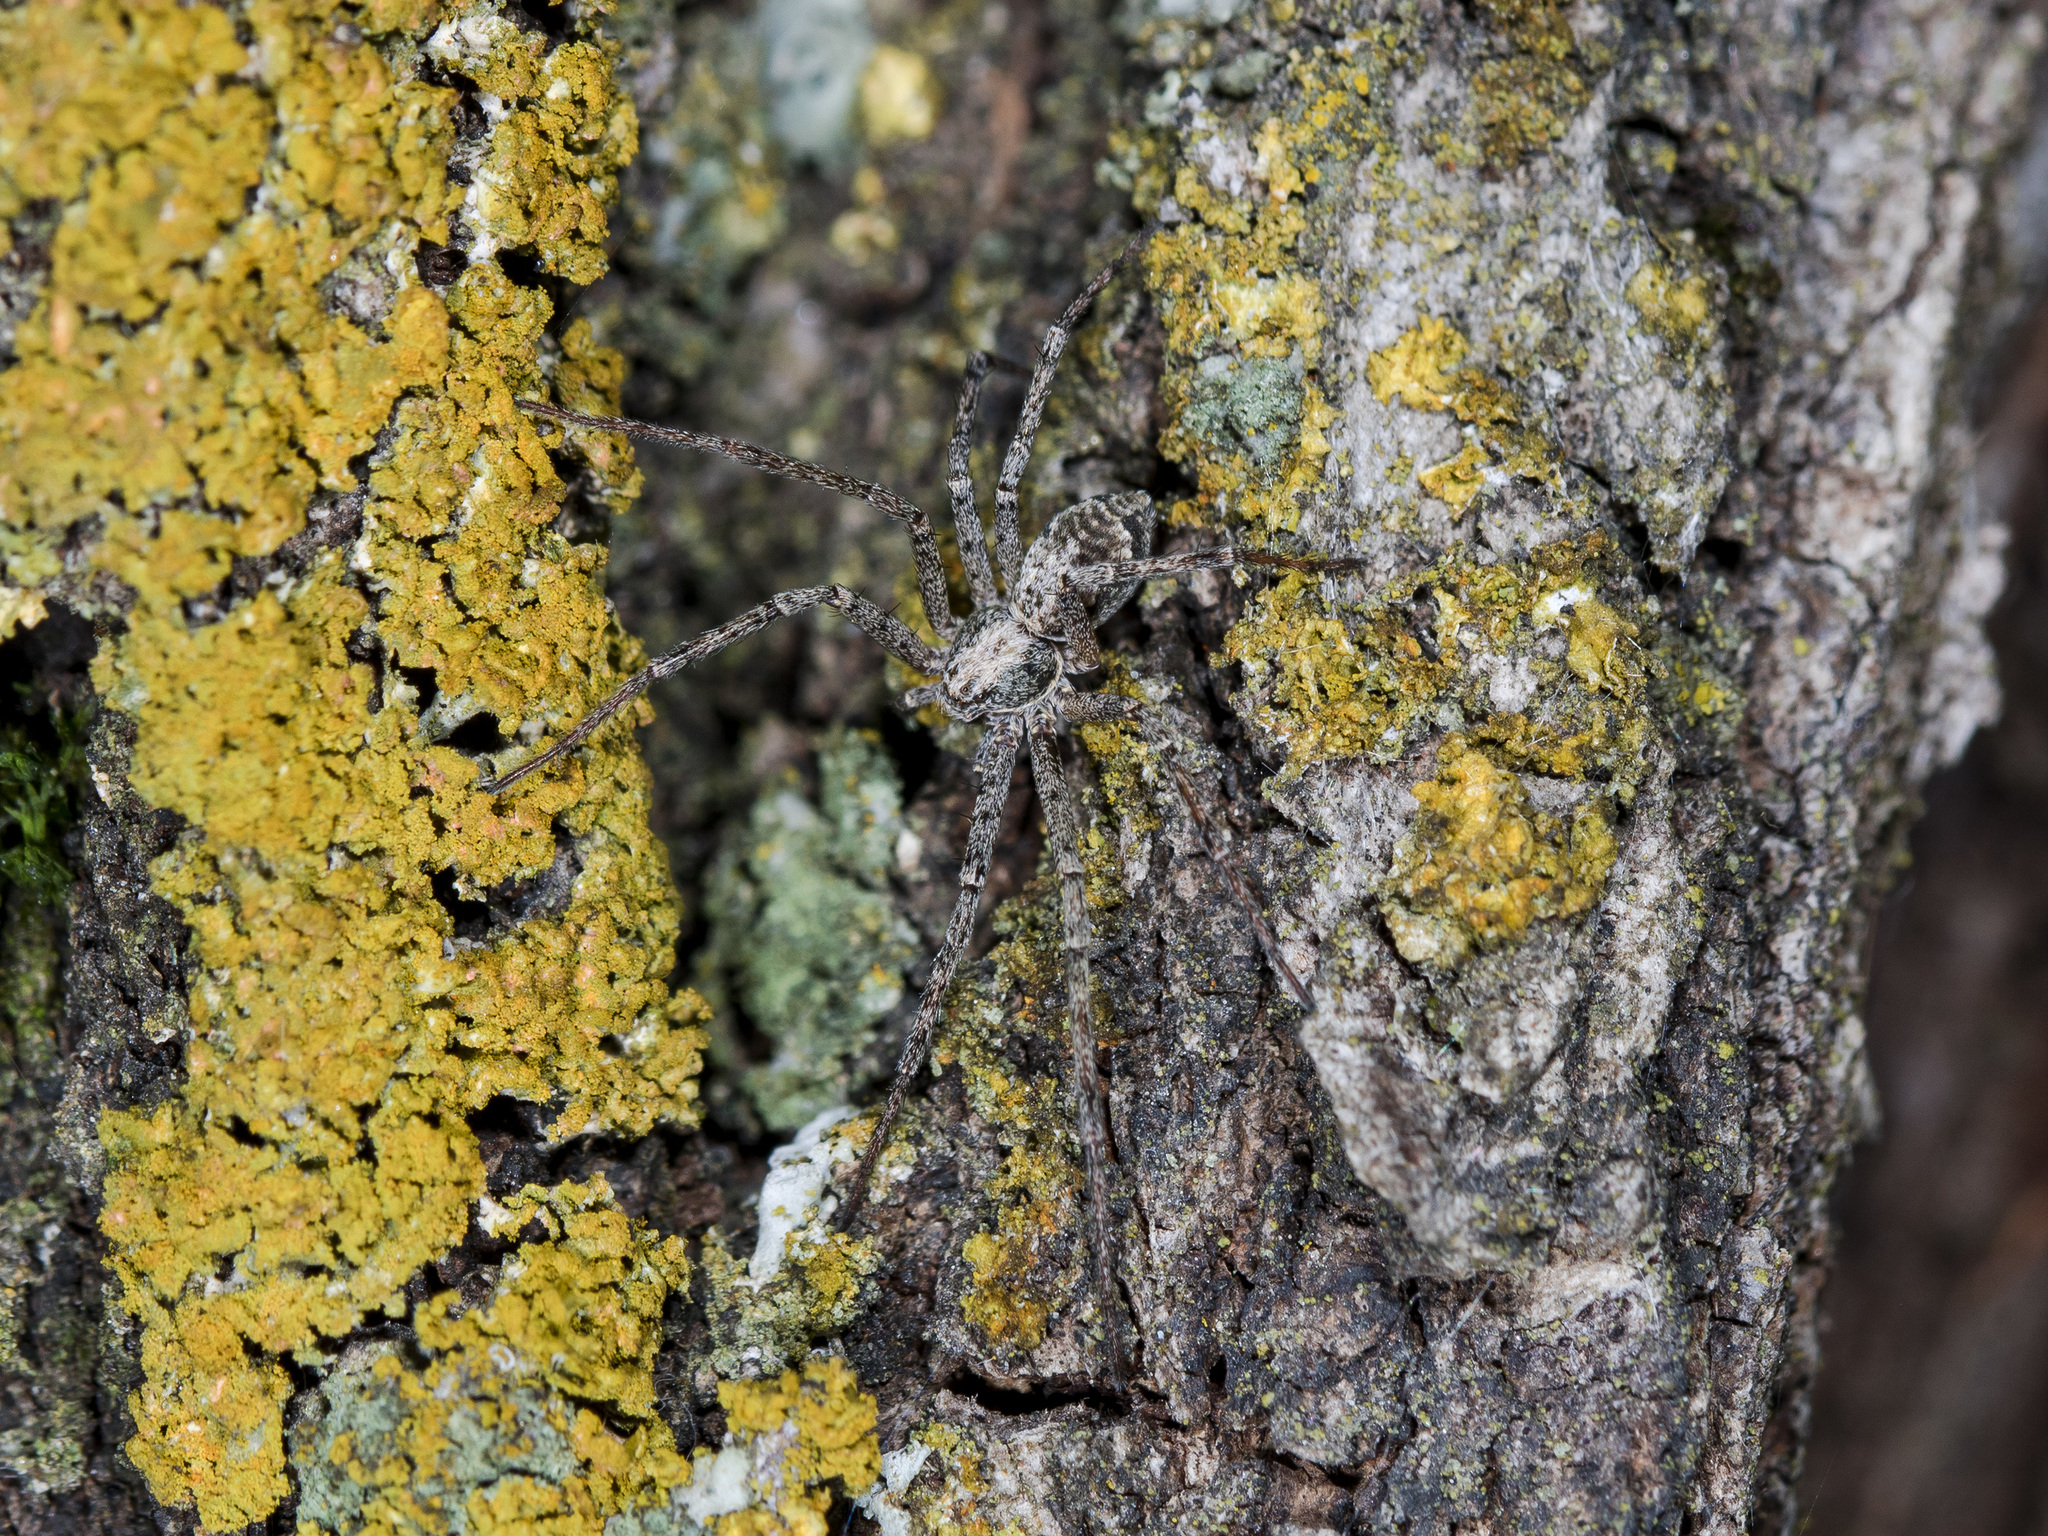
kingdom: Animalia
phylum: Arthropoda
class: Arachnida
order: Araneae
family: Philodromidae
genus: Rhysodromus
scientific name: Rhysodromus pictus
